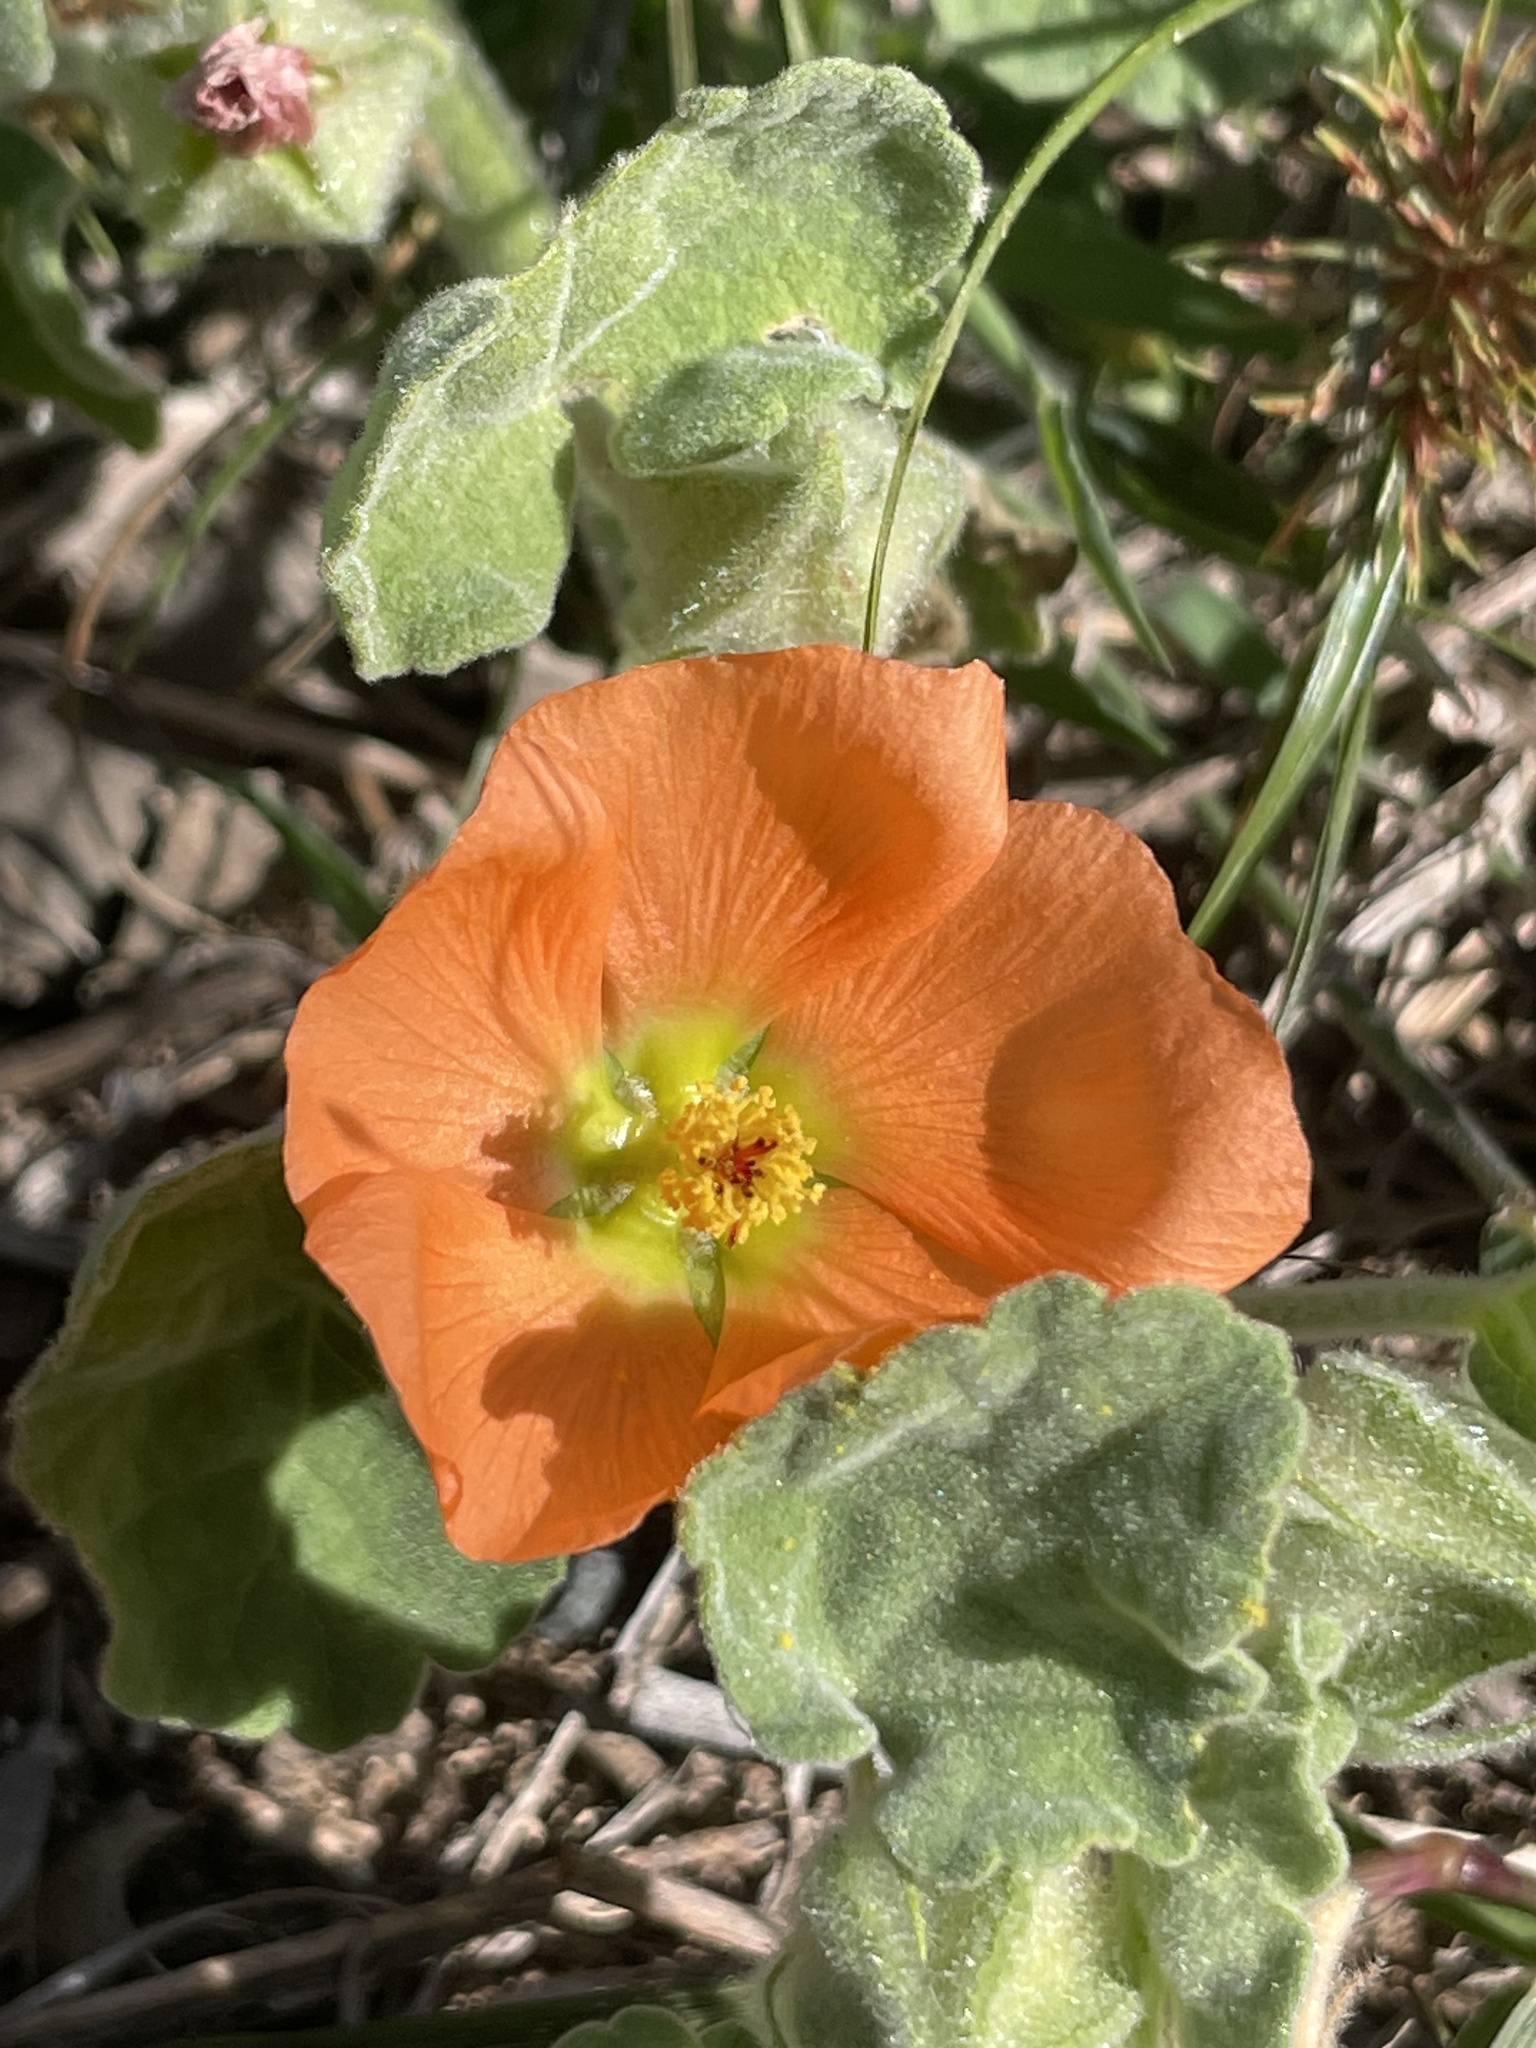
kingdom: Plantae
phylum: Tracheophyta
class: Magnoliopsida
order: Malvales
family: Malvaceae
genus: Sphaeralcea
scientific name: Sphaeralcea lindheimeri
